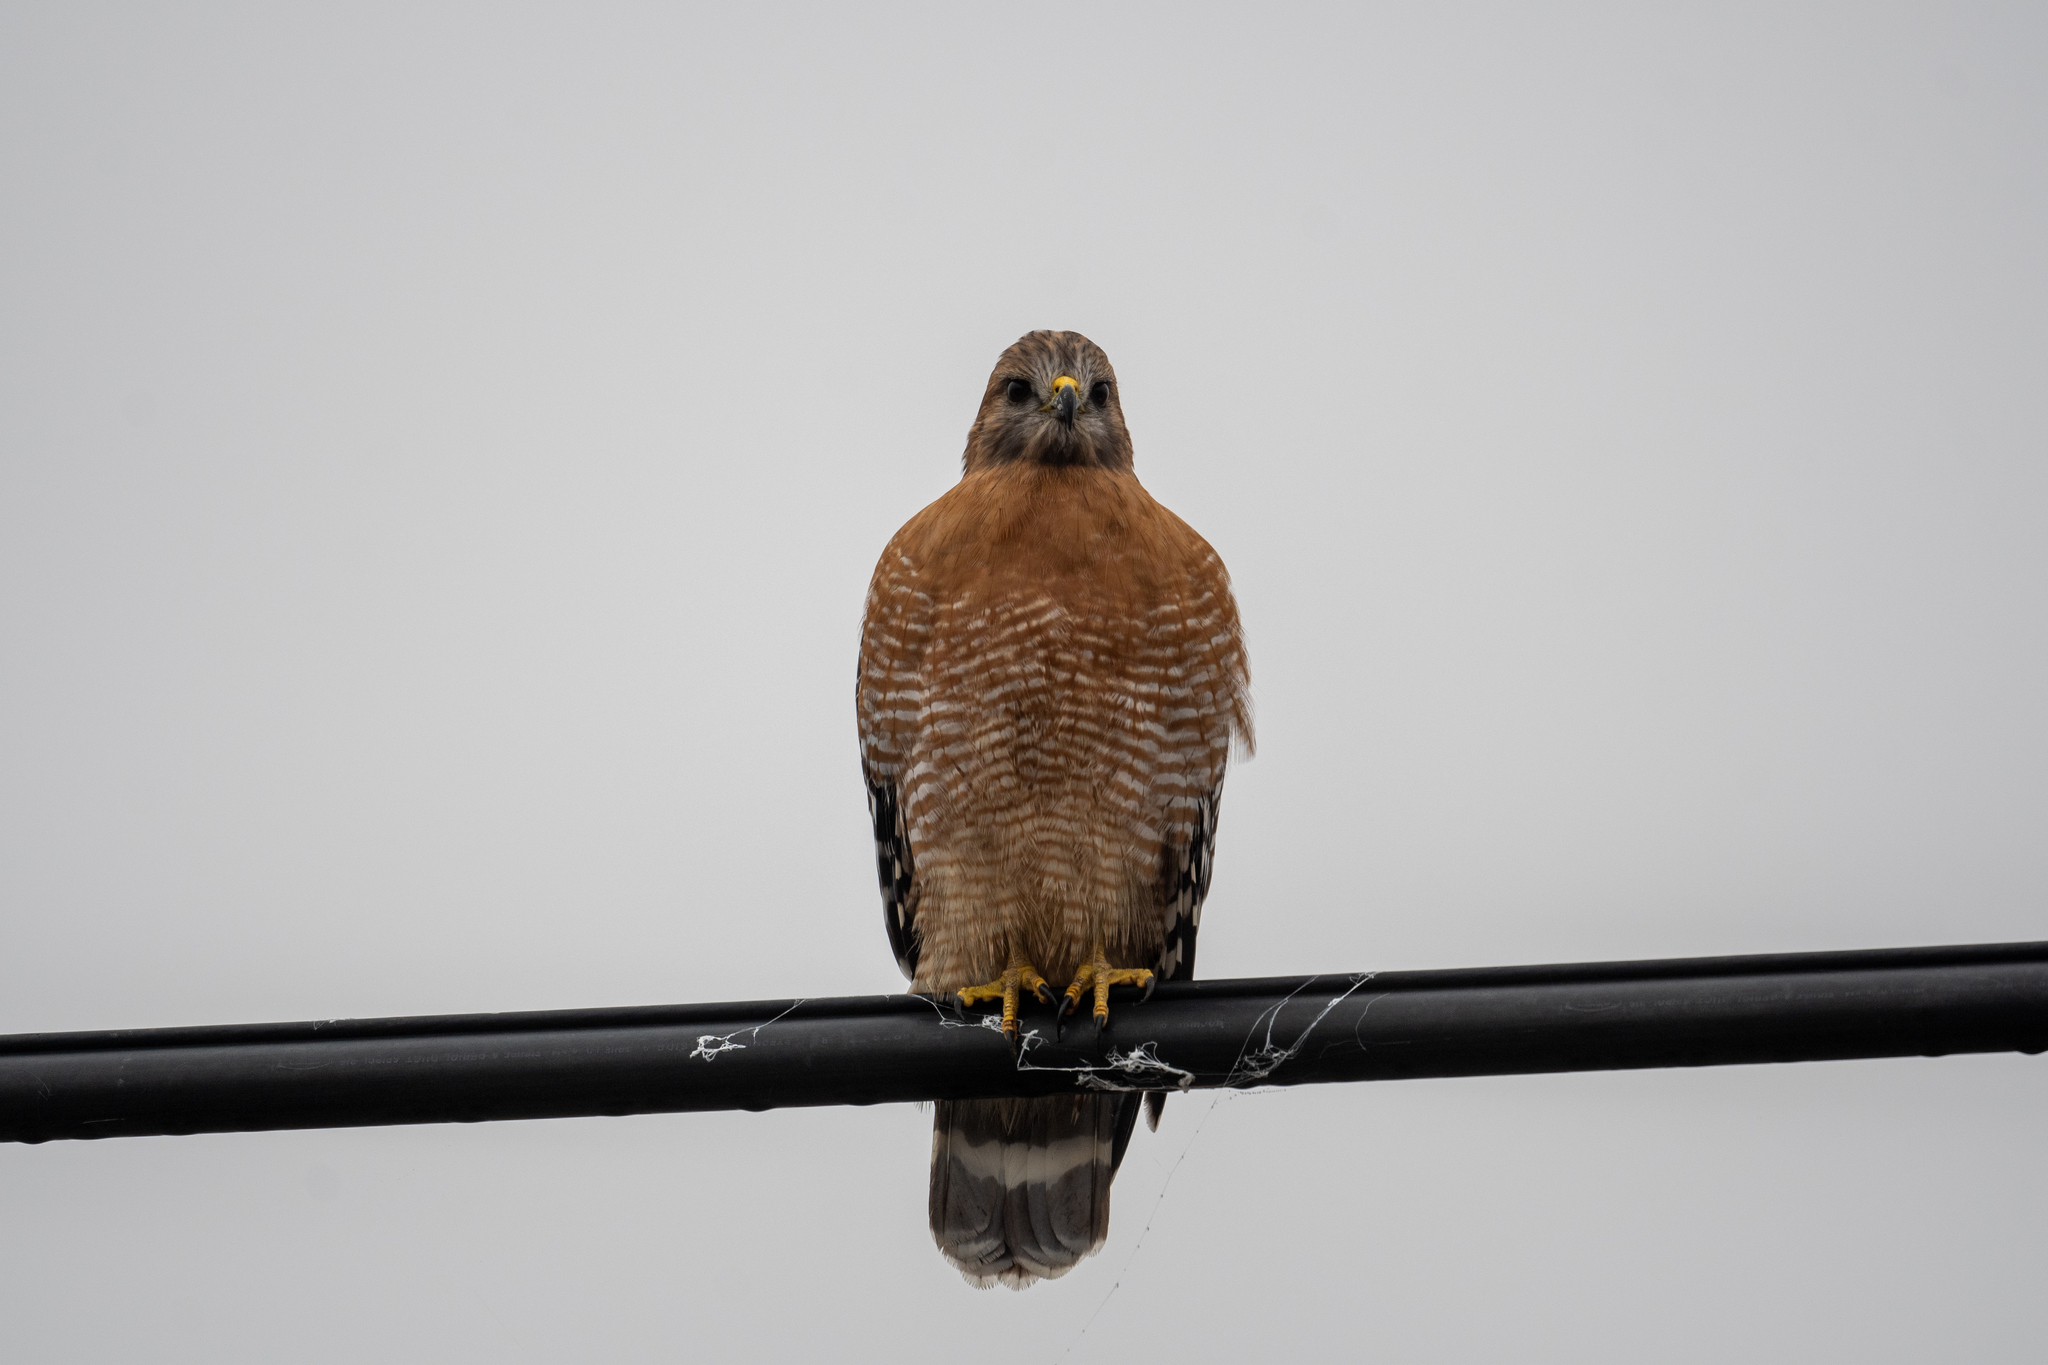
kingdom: Animalia
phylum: Chordata
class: Aves
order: Accipitriformes
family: Accipitridae
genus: Buteo
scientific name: Buteo lineatus
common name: Red-shouldered hawk
